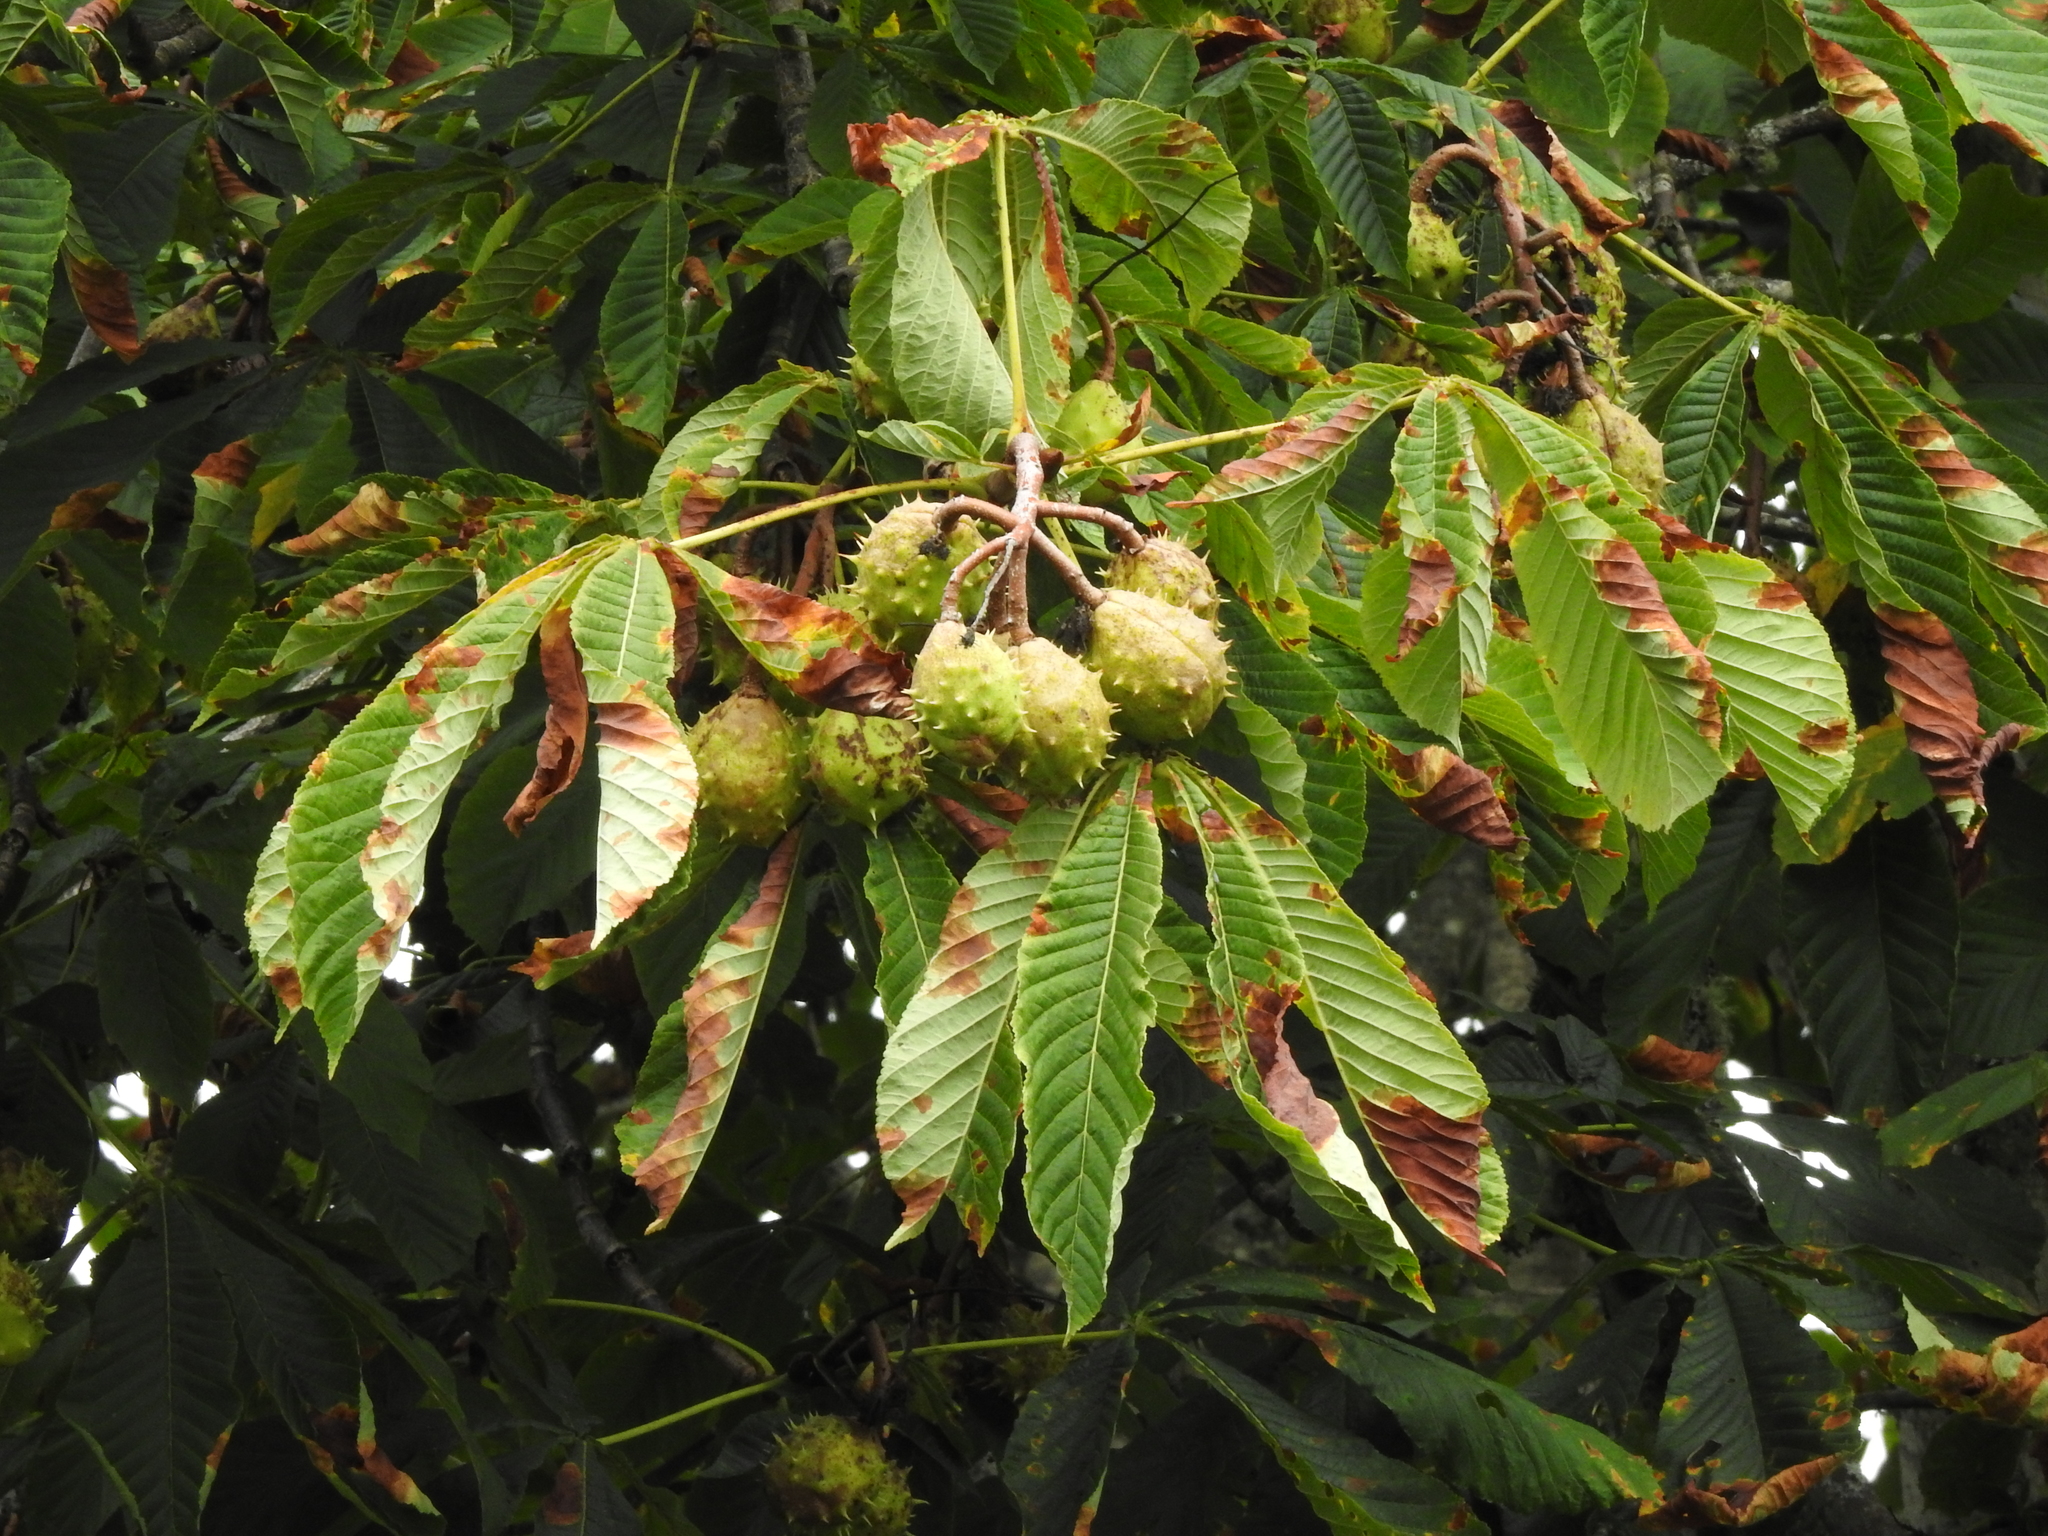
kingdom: Plantae
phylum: Tracheophyta
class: Magnoliopsida
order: Sapindales
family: Sapindaceae
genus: Aesculus
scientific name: Aesculus hippocastanum
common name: Horse-chestnut
